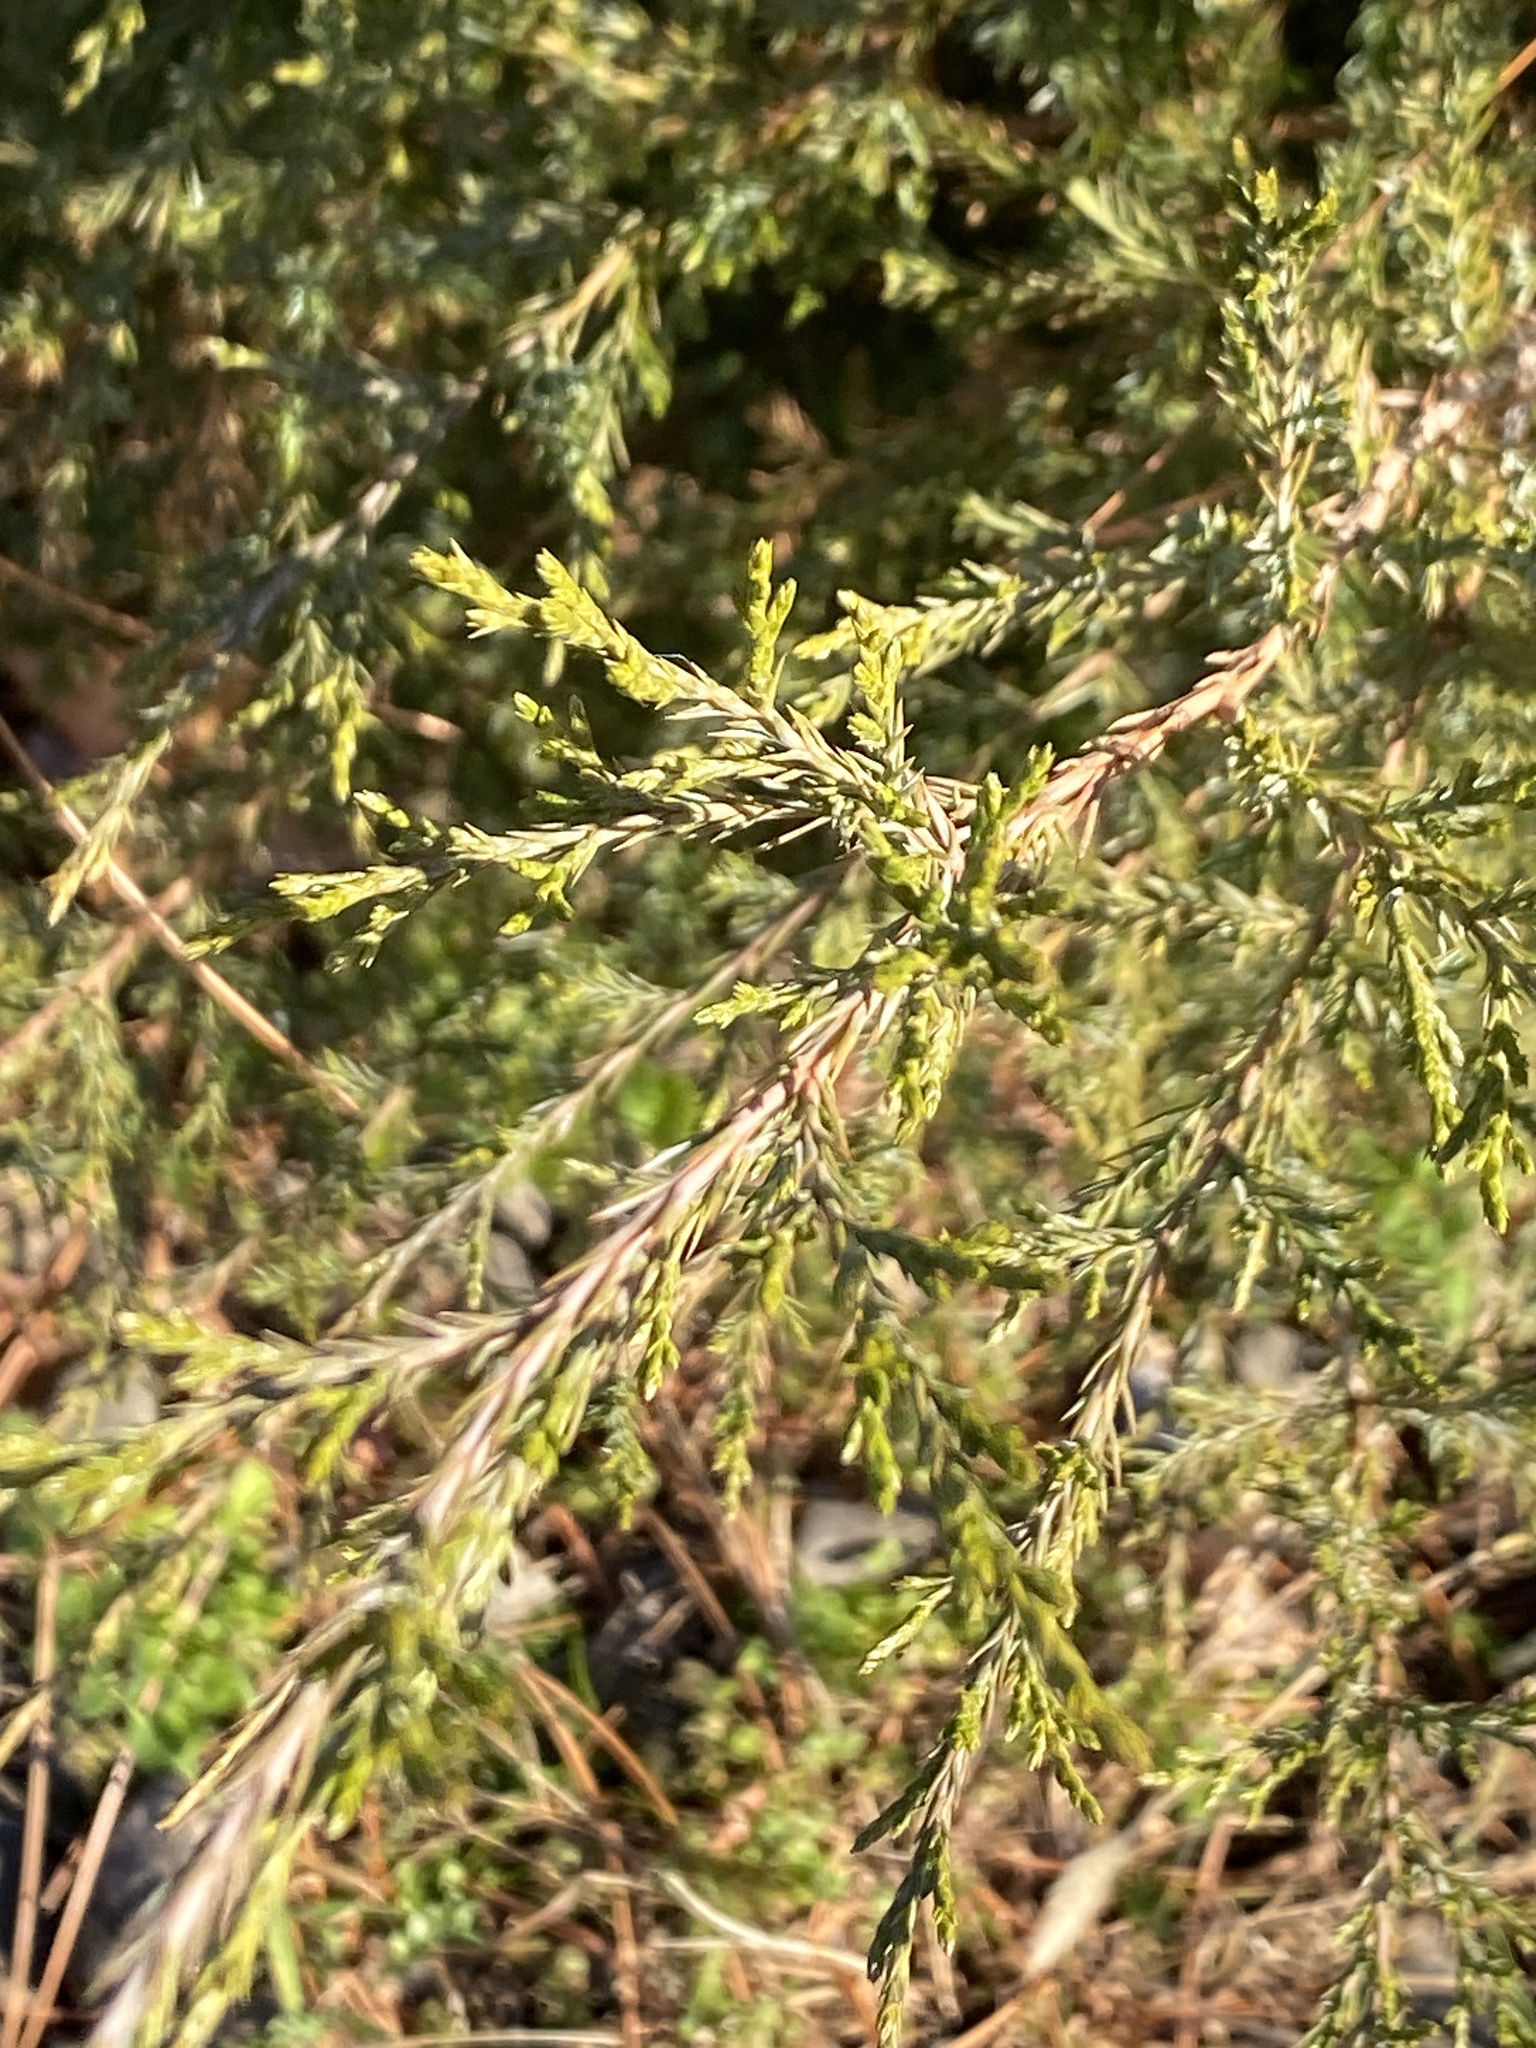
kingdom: Plantae
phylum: Tracheophyta
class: Pinopsida
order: Pinales
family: Cupressaceae
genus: Juniperus
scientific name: Juniperus virginiana
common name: Red juniper
